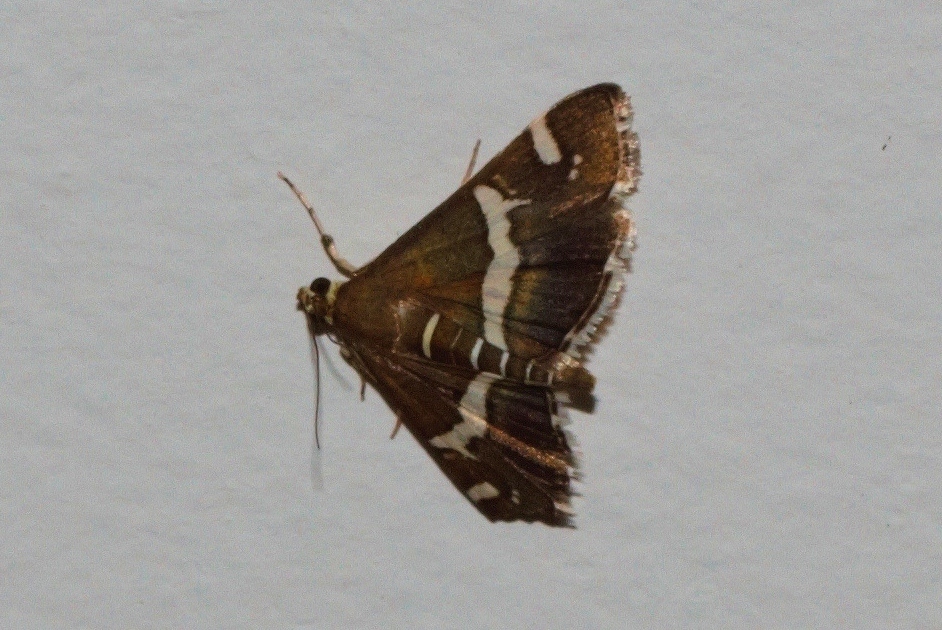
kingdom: Animalia
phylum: Arthropoda
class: Insecta
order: Lepidoptera
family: Crambidae
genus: Spoladea
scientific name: Spoladea recurvalis
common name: Beet webworm moth
